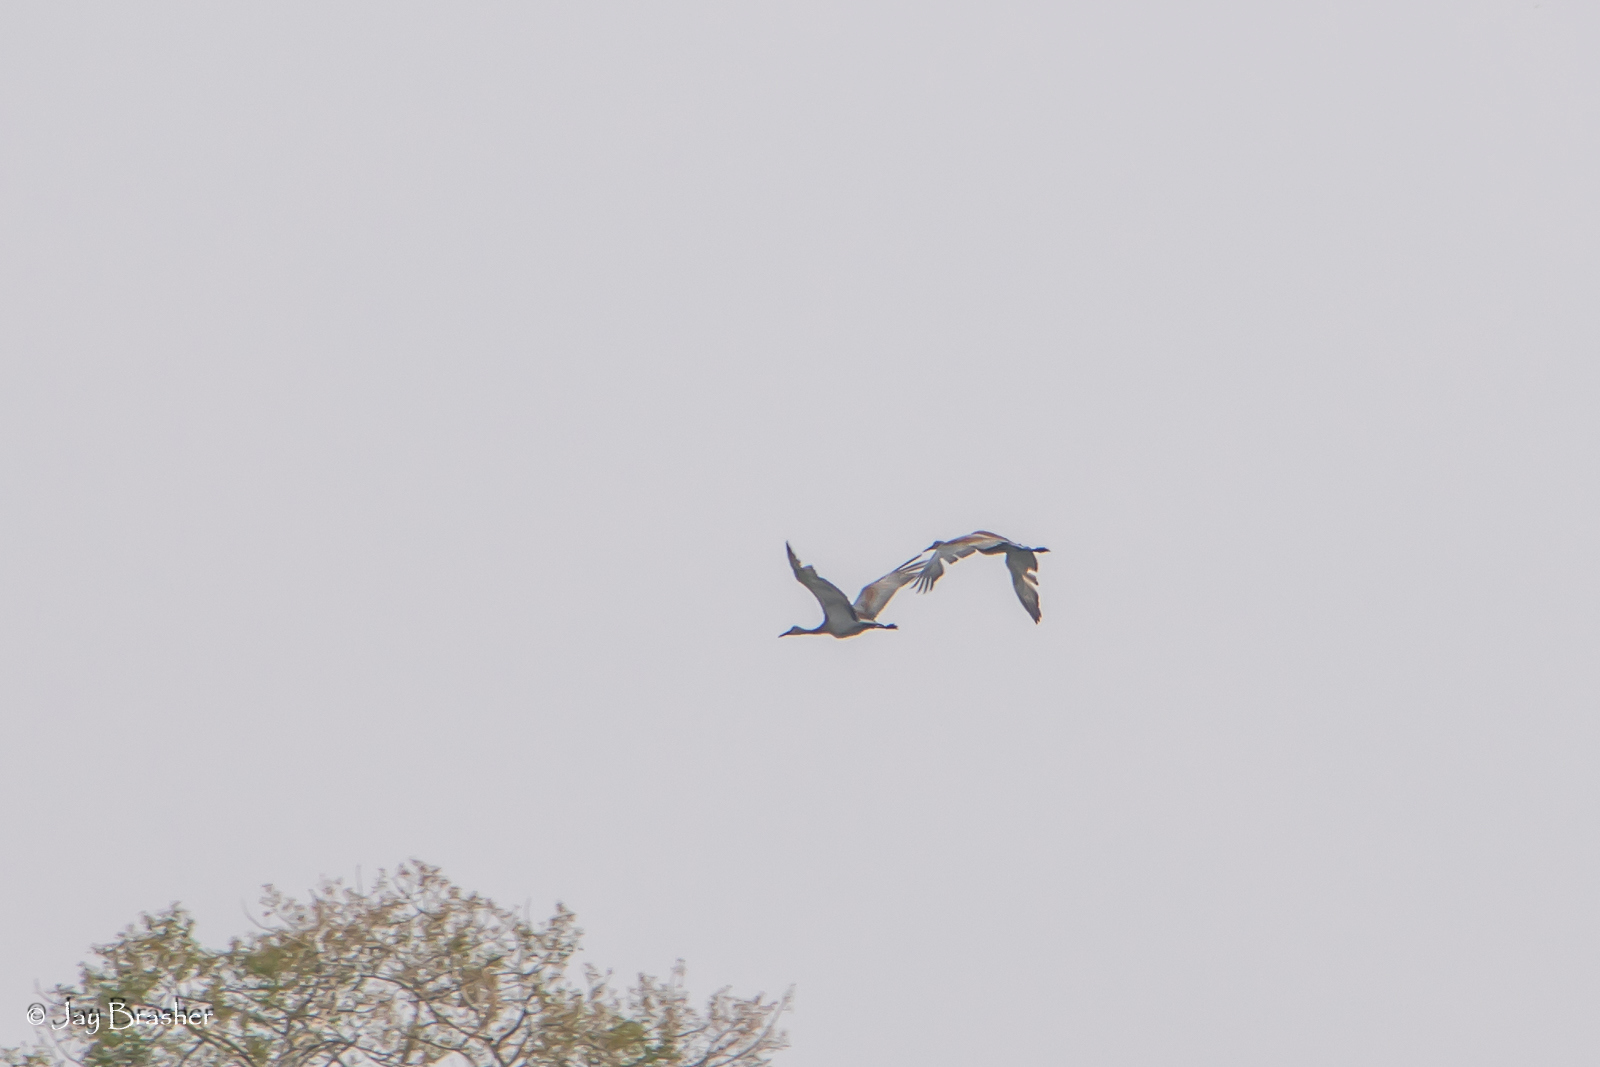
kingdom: Animalia
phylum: Chordata
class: Aves
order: Gruiformes
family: Gruidae
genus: Grus
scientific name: Grus canadensis
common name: Sandhill crane
